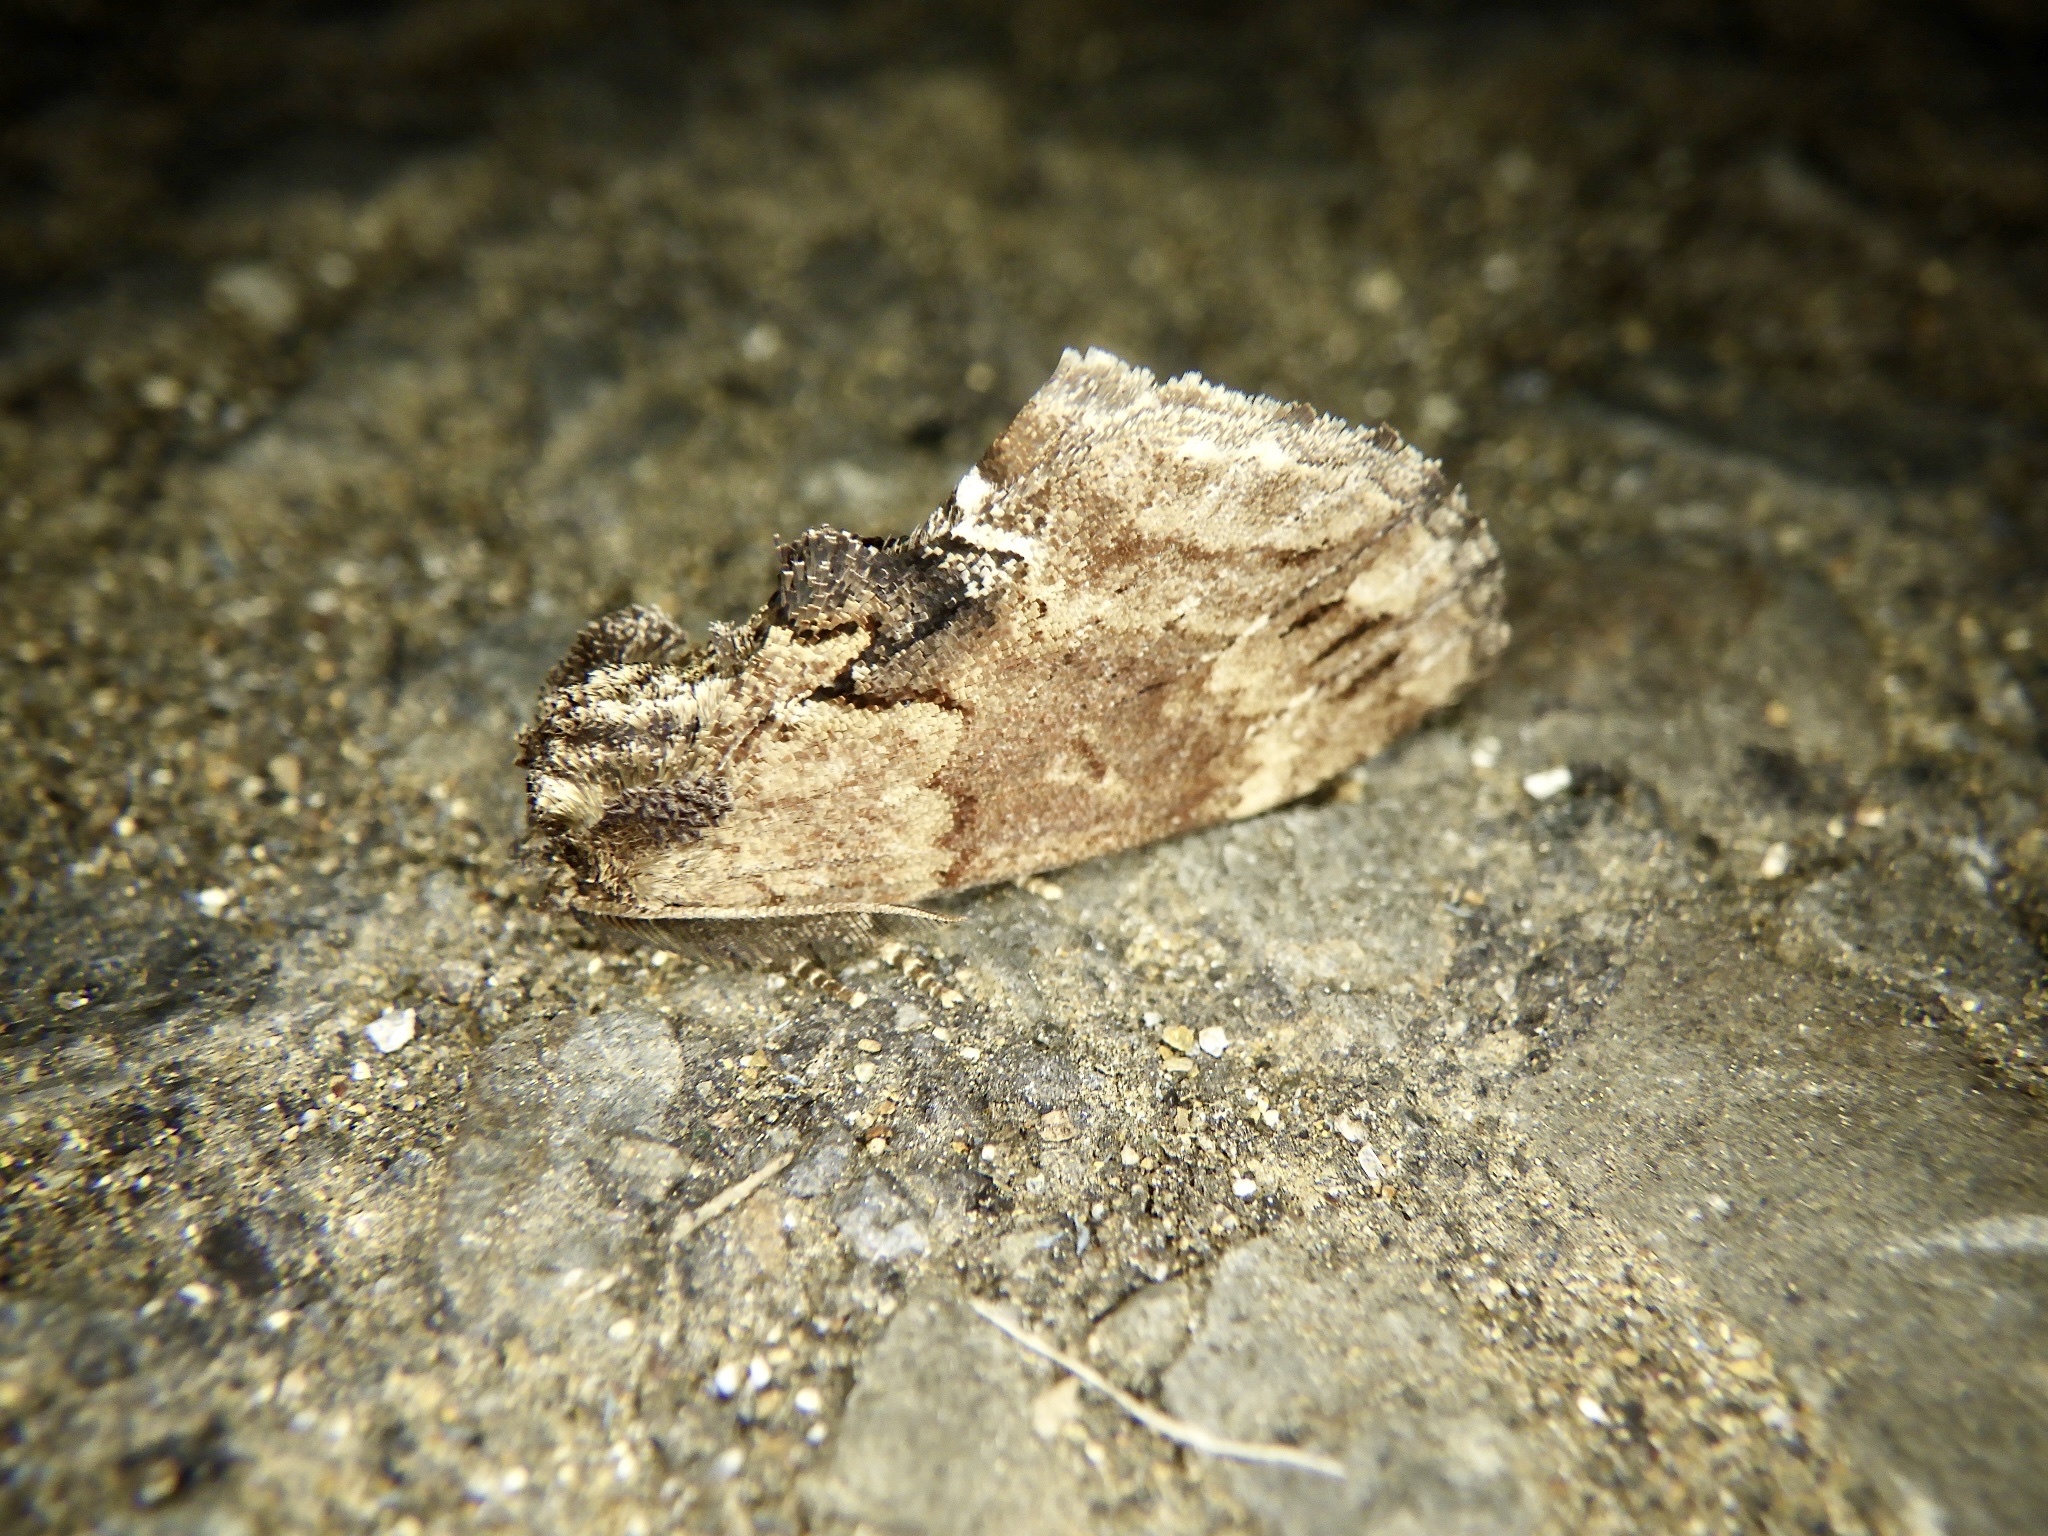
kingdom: Animalia
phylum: Arthropoda
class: Insecta
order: Lepidoptera
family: Notodontidae
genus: Lophontosia
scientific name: Lophontosia
